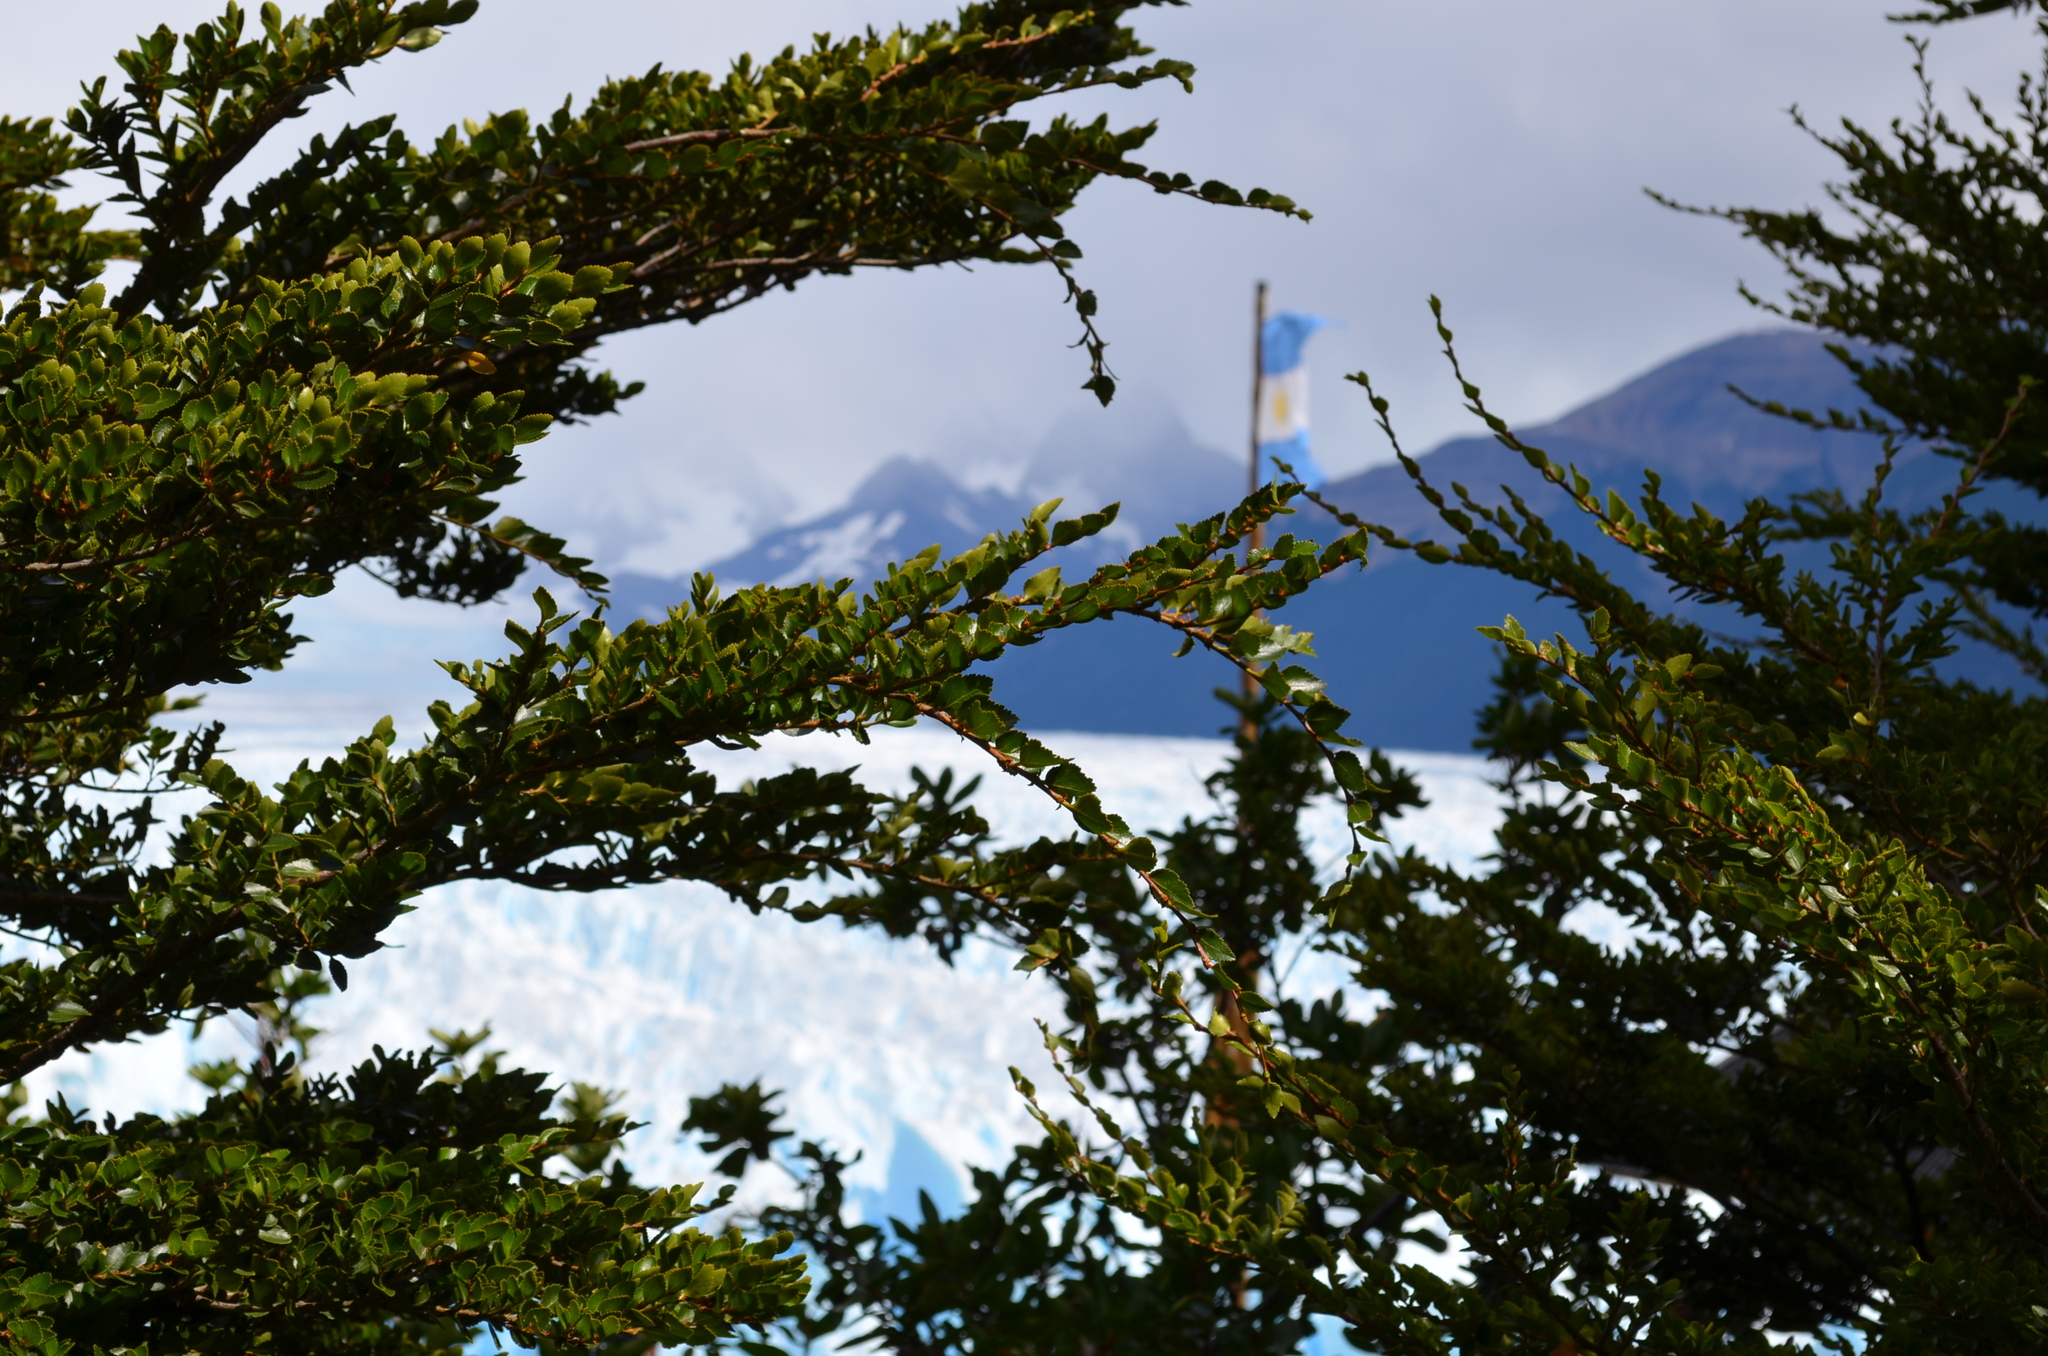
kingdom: Plantae
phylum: Tracheophyta
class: Magnoliopsida
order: Fagales
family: Nothofagaceae
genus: Nothofagus
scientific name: Nothofagus betuloides
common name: Magellan's beech
